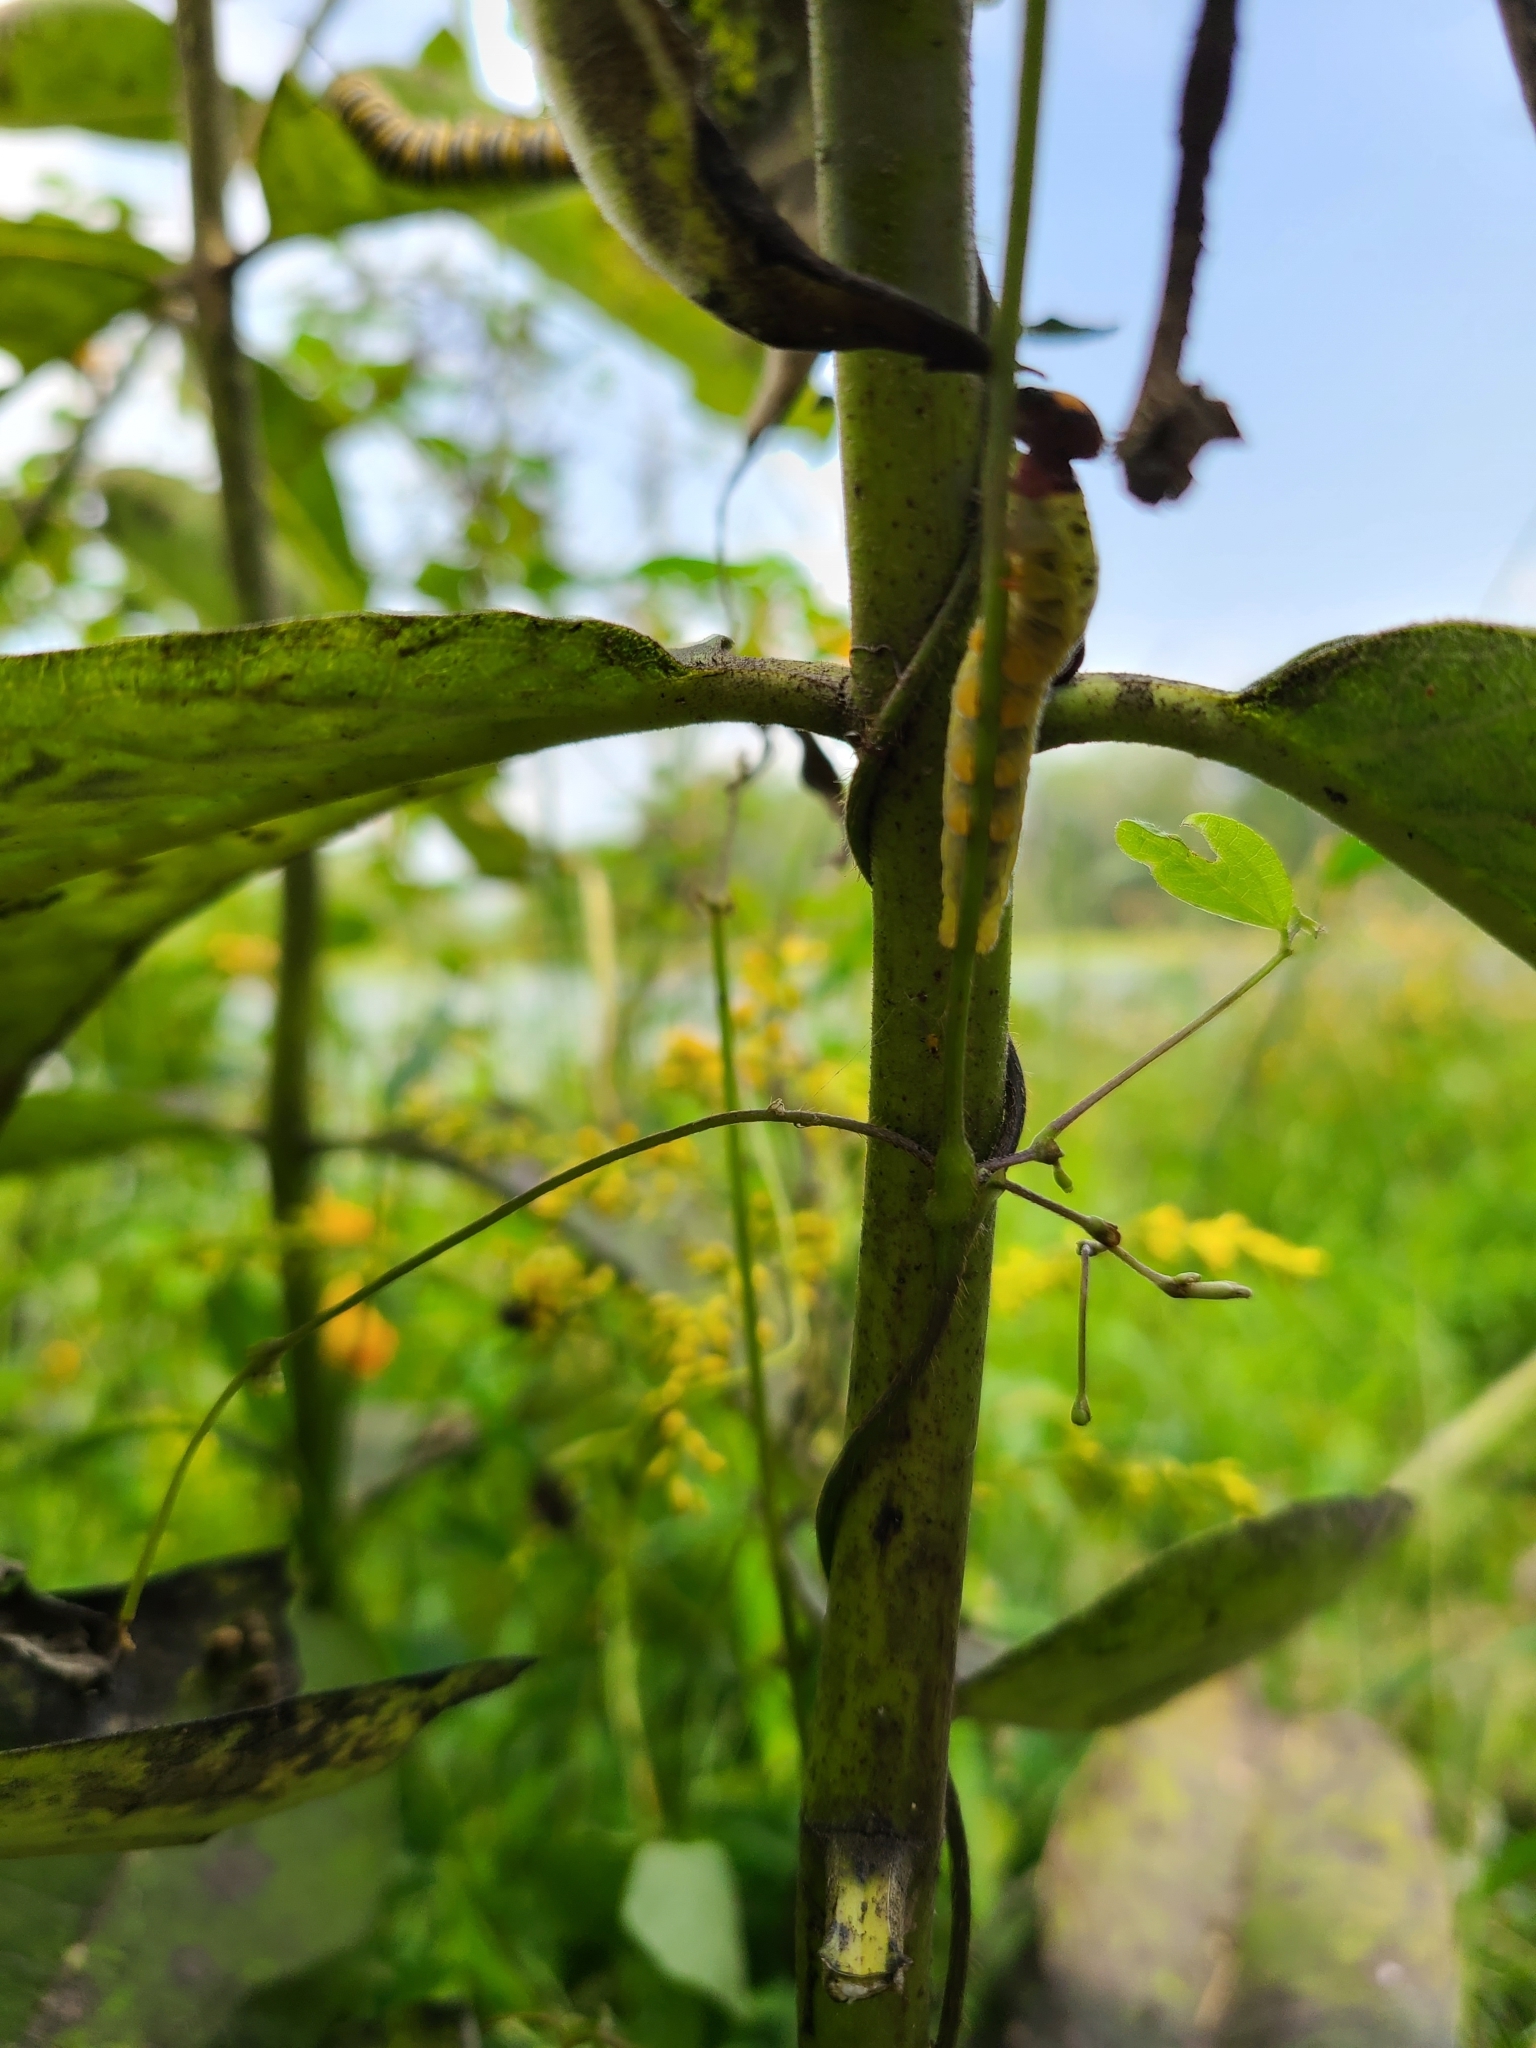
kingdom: Animalia
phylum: Arthropoda
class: Insecta
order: Lepidoptera
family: Hesperiidae
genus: Epargyreus
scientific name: Epargyreus clarus
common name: Silver-spotted skipper
